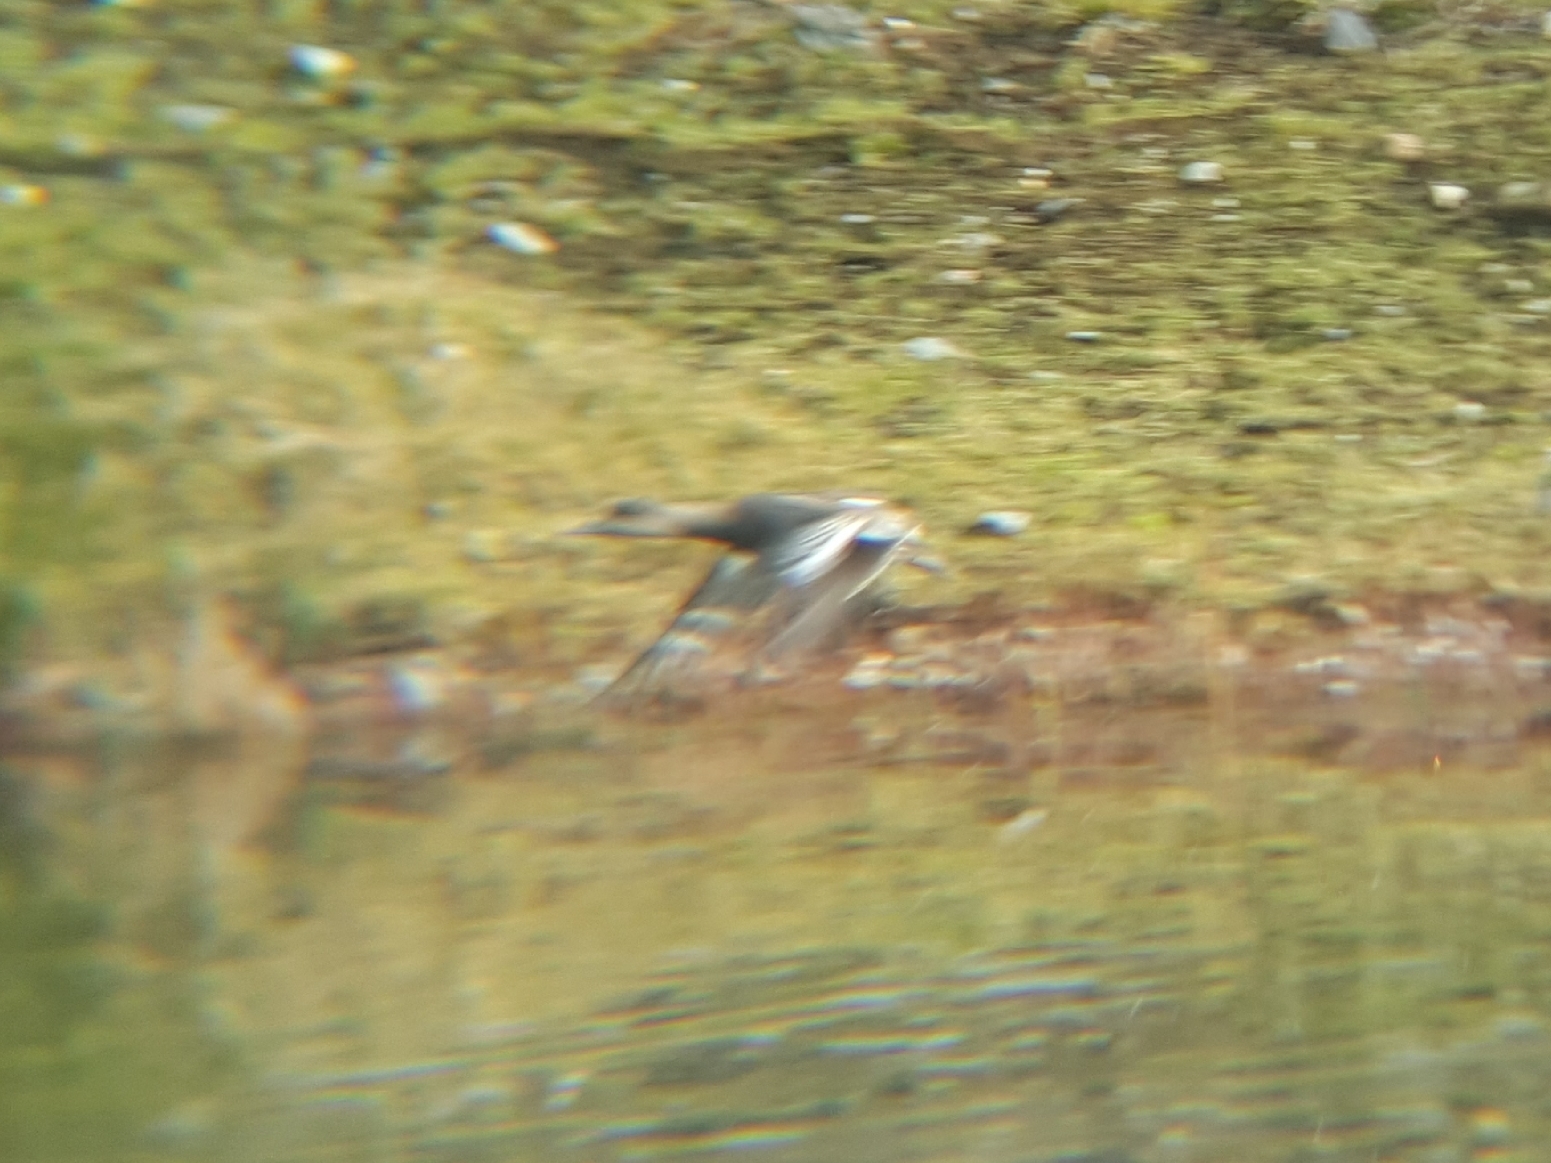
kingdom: Animalia
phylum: Chordata
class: Aves
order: Anseriformes
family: Anatidae
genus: Mareca
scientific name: Mareca americana
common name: American wigeon
